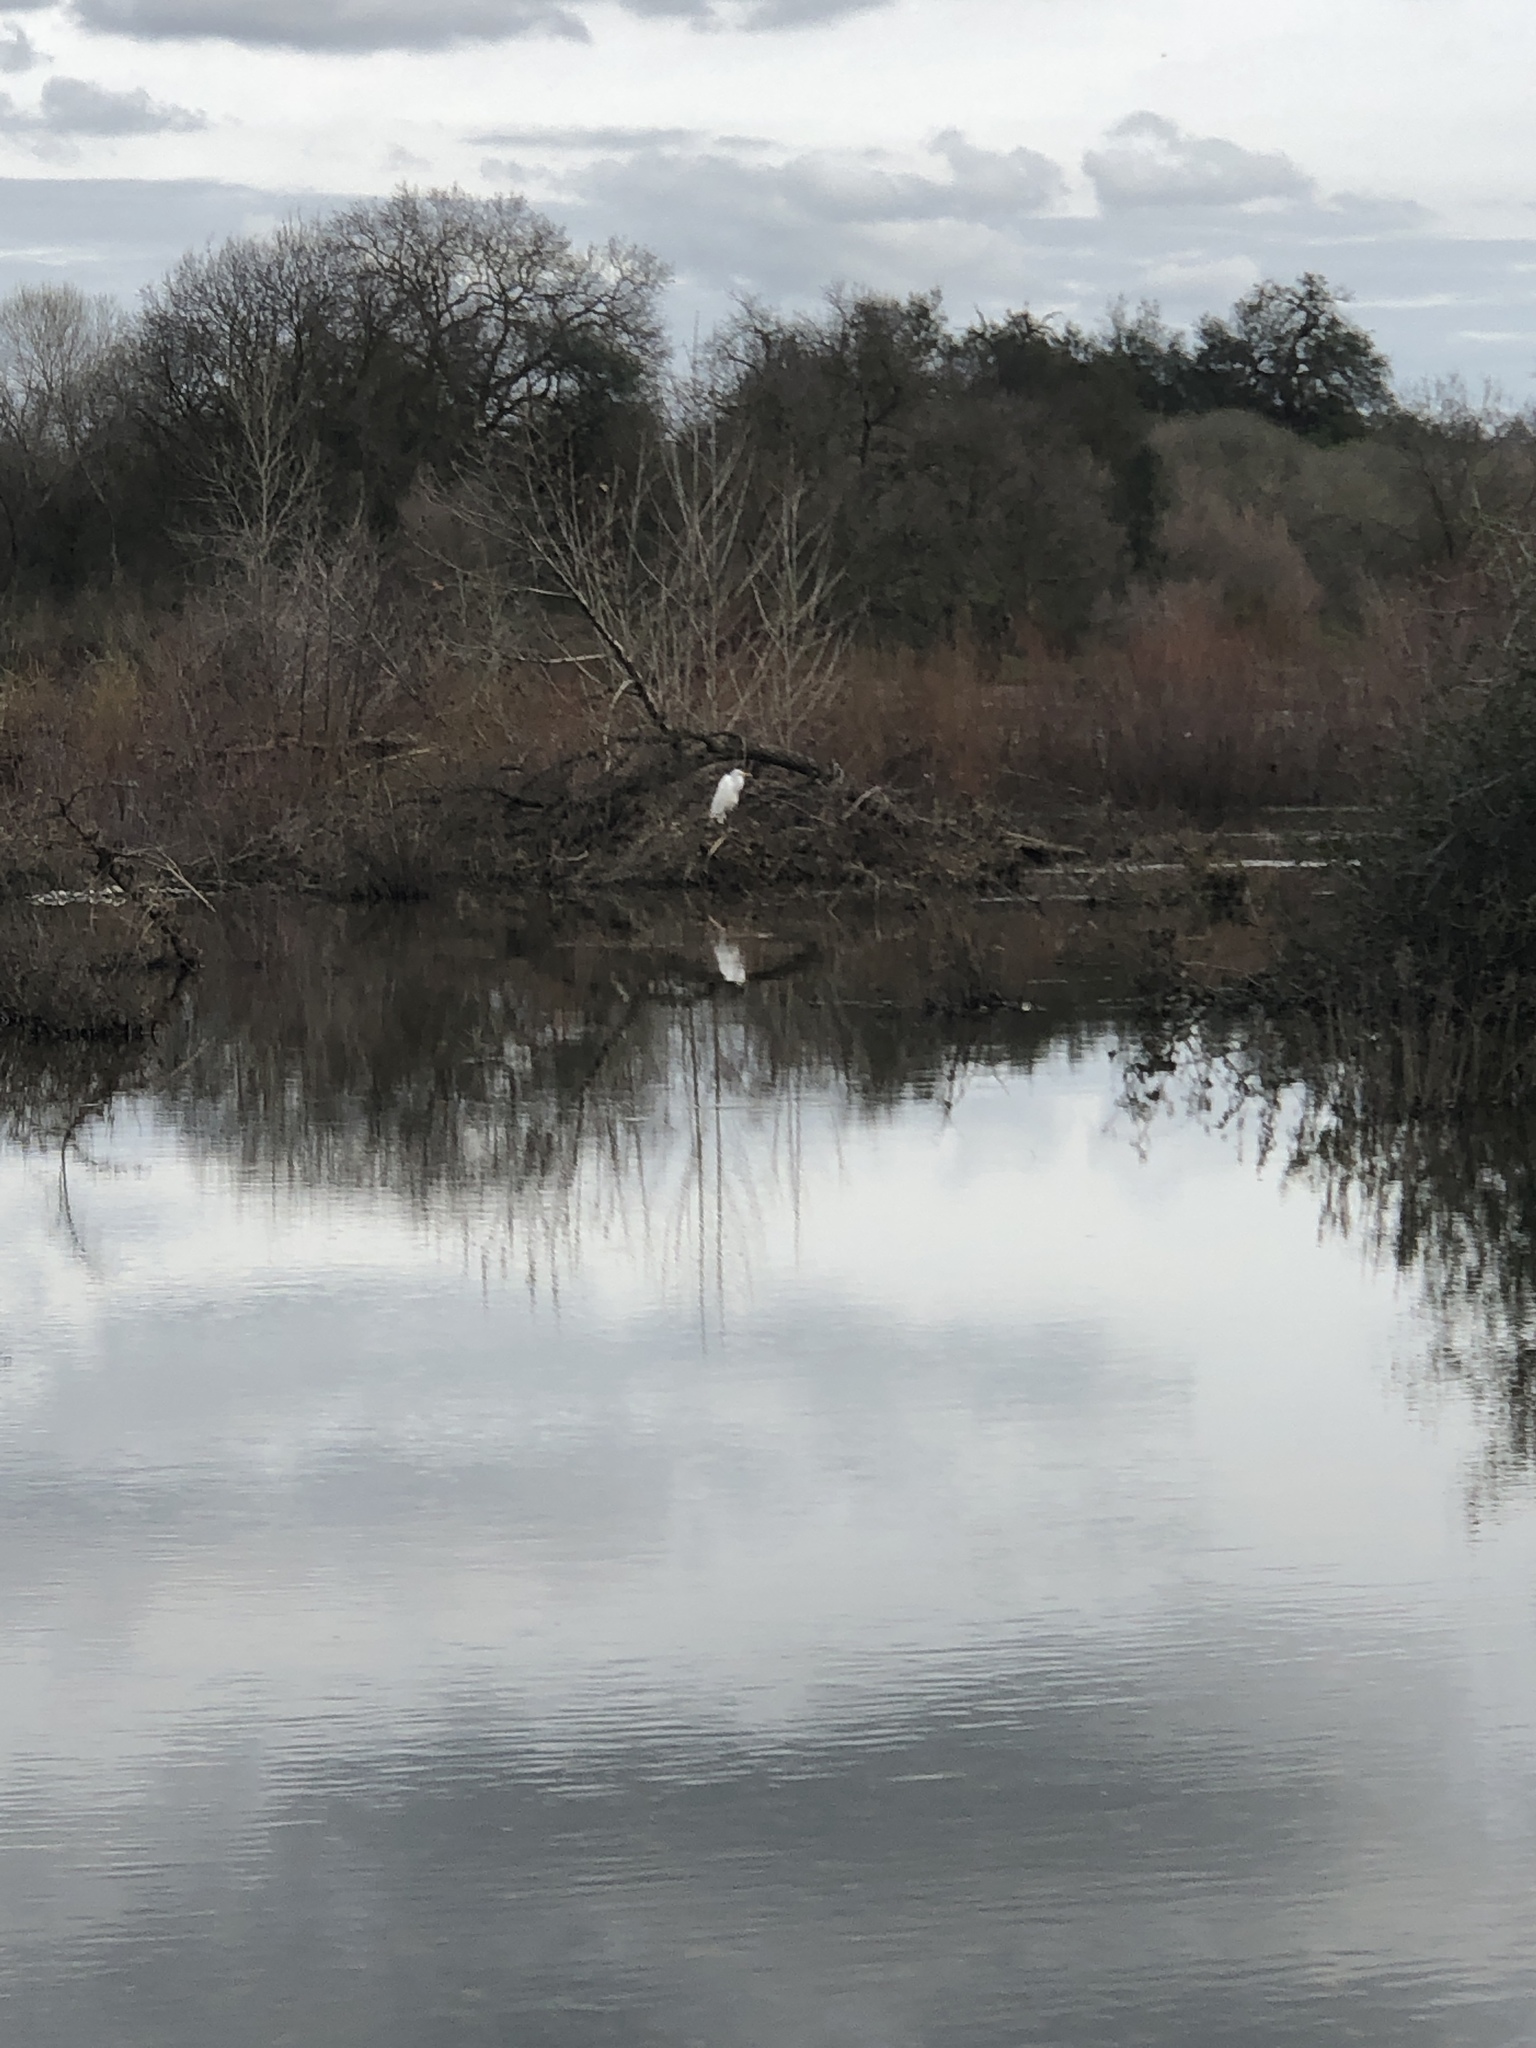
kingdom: Animalia
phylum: Chordata
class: Aves
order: Pelecaniformes
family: Ardeidae
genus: Ardea
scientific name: Ardea alba
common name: Great egret
